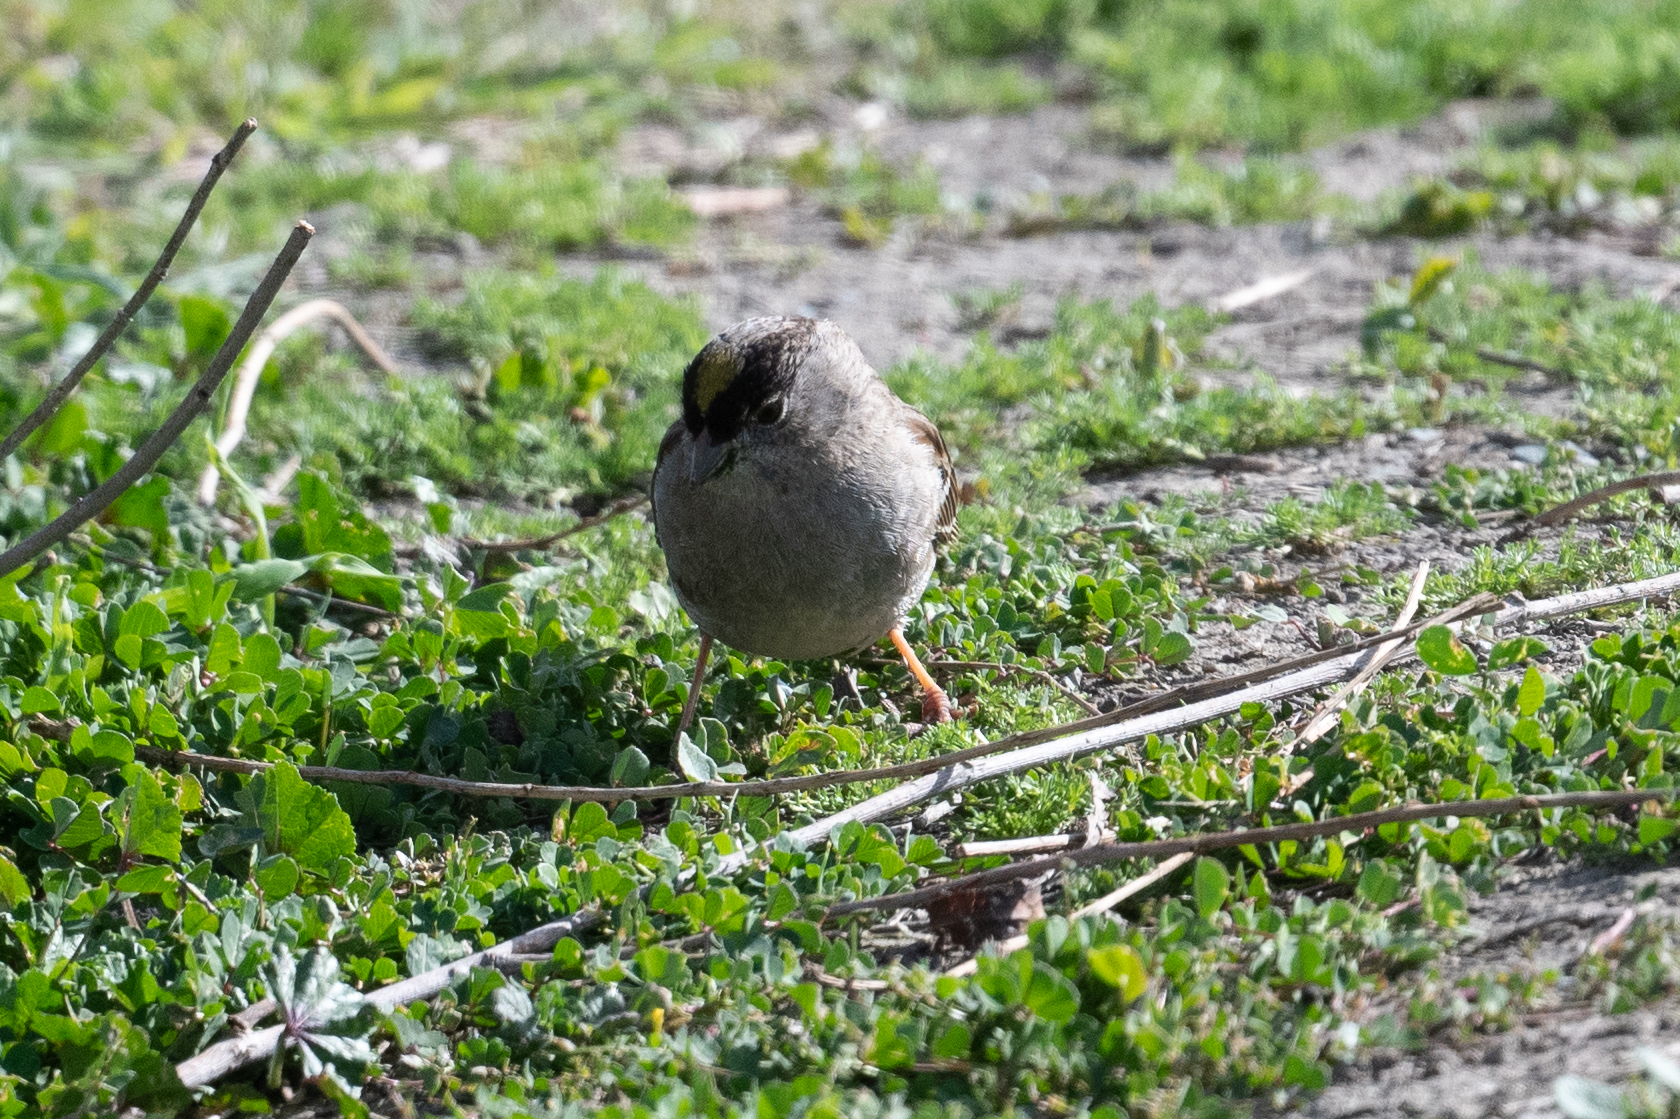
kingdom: Animalia
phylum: Chordata
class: Aves
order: Passeriformes
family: Passerellidae
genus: Zonotrichia
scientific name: Zonotrichia atricapilla
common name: Golden-crowned sparrow
